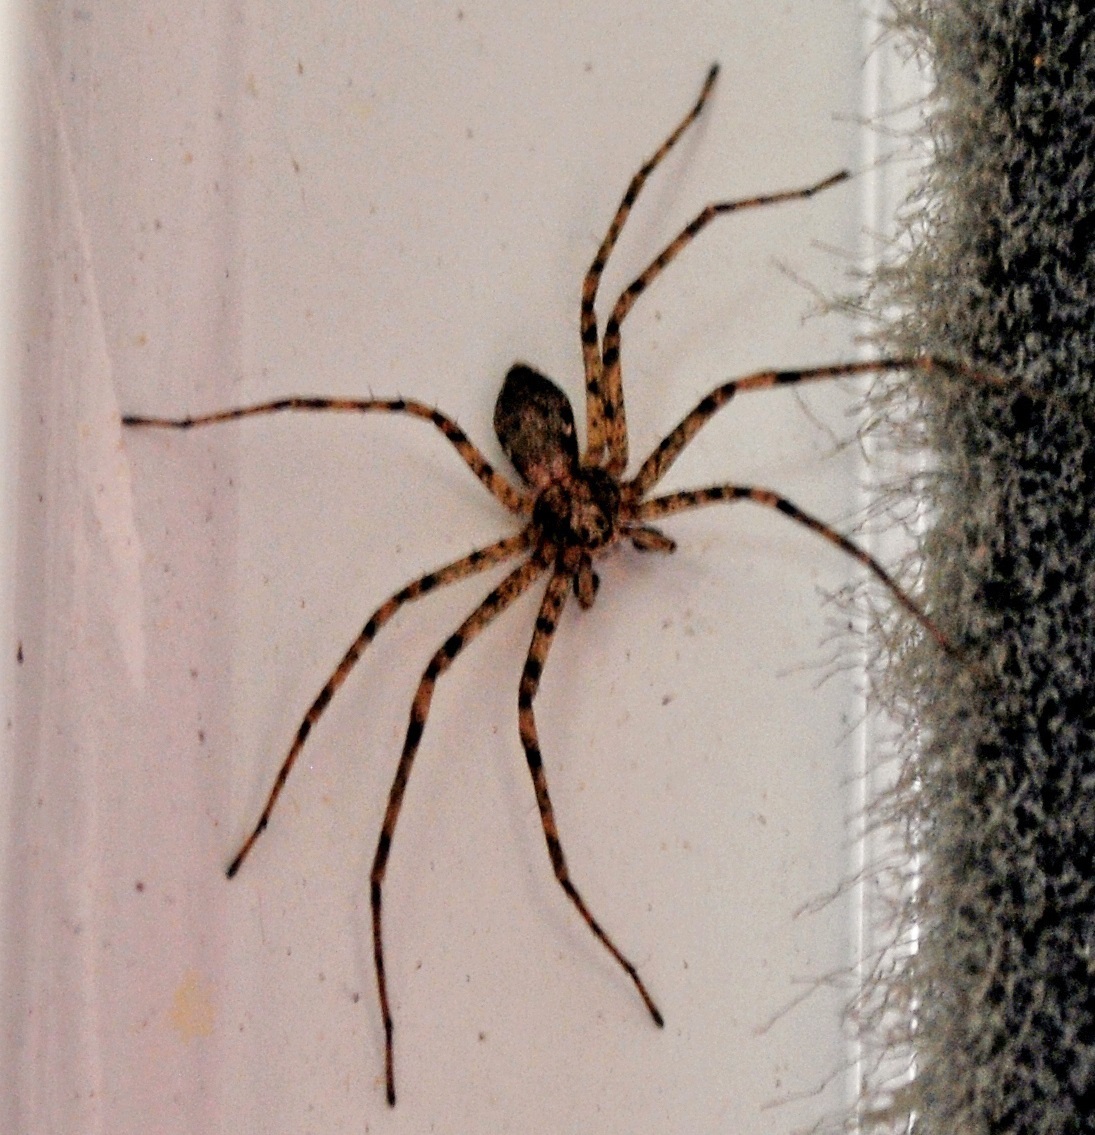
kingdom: Animalia
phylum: Arthropoda
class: Arachnida
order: Araneae
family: Philodromidae
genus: Philodromus
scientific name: Philodromus
